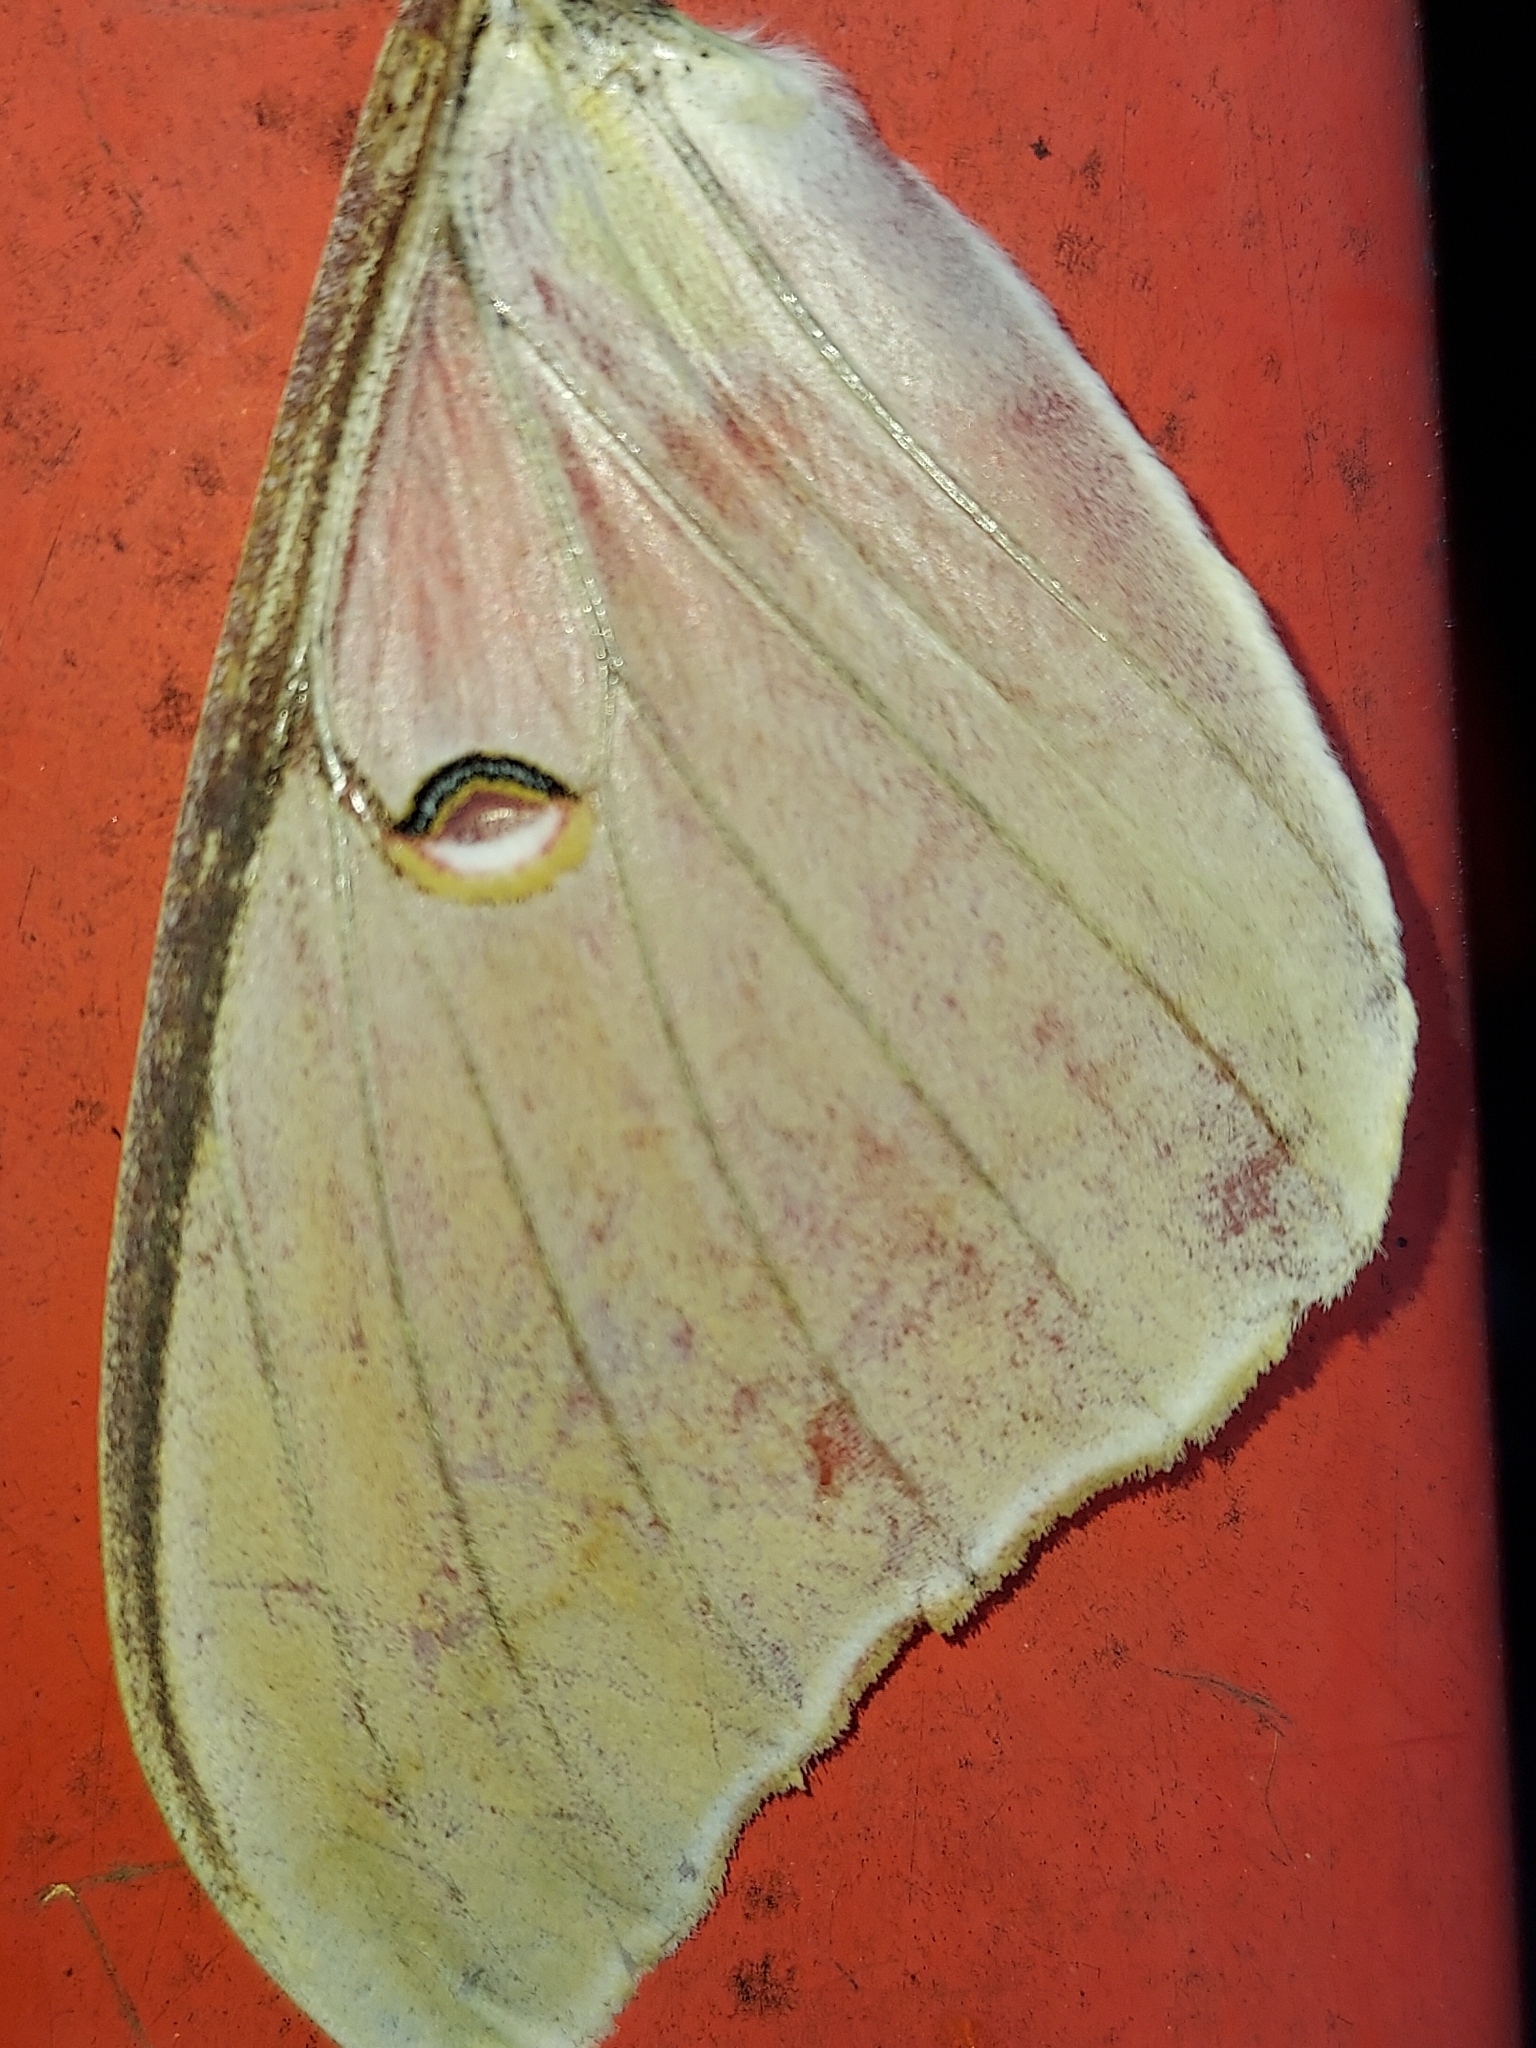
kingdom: Animalia
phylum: Arthropoda
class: Insecta
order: Lepidoptera
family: Saturniidae
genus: Actias
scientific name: Actias luna
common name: Luna moth
